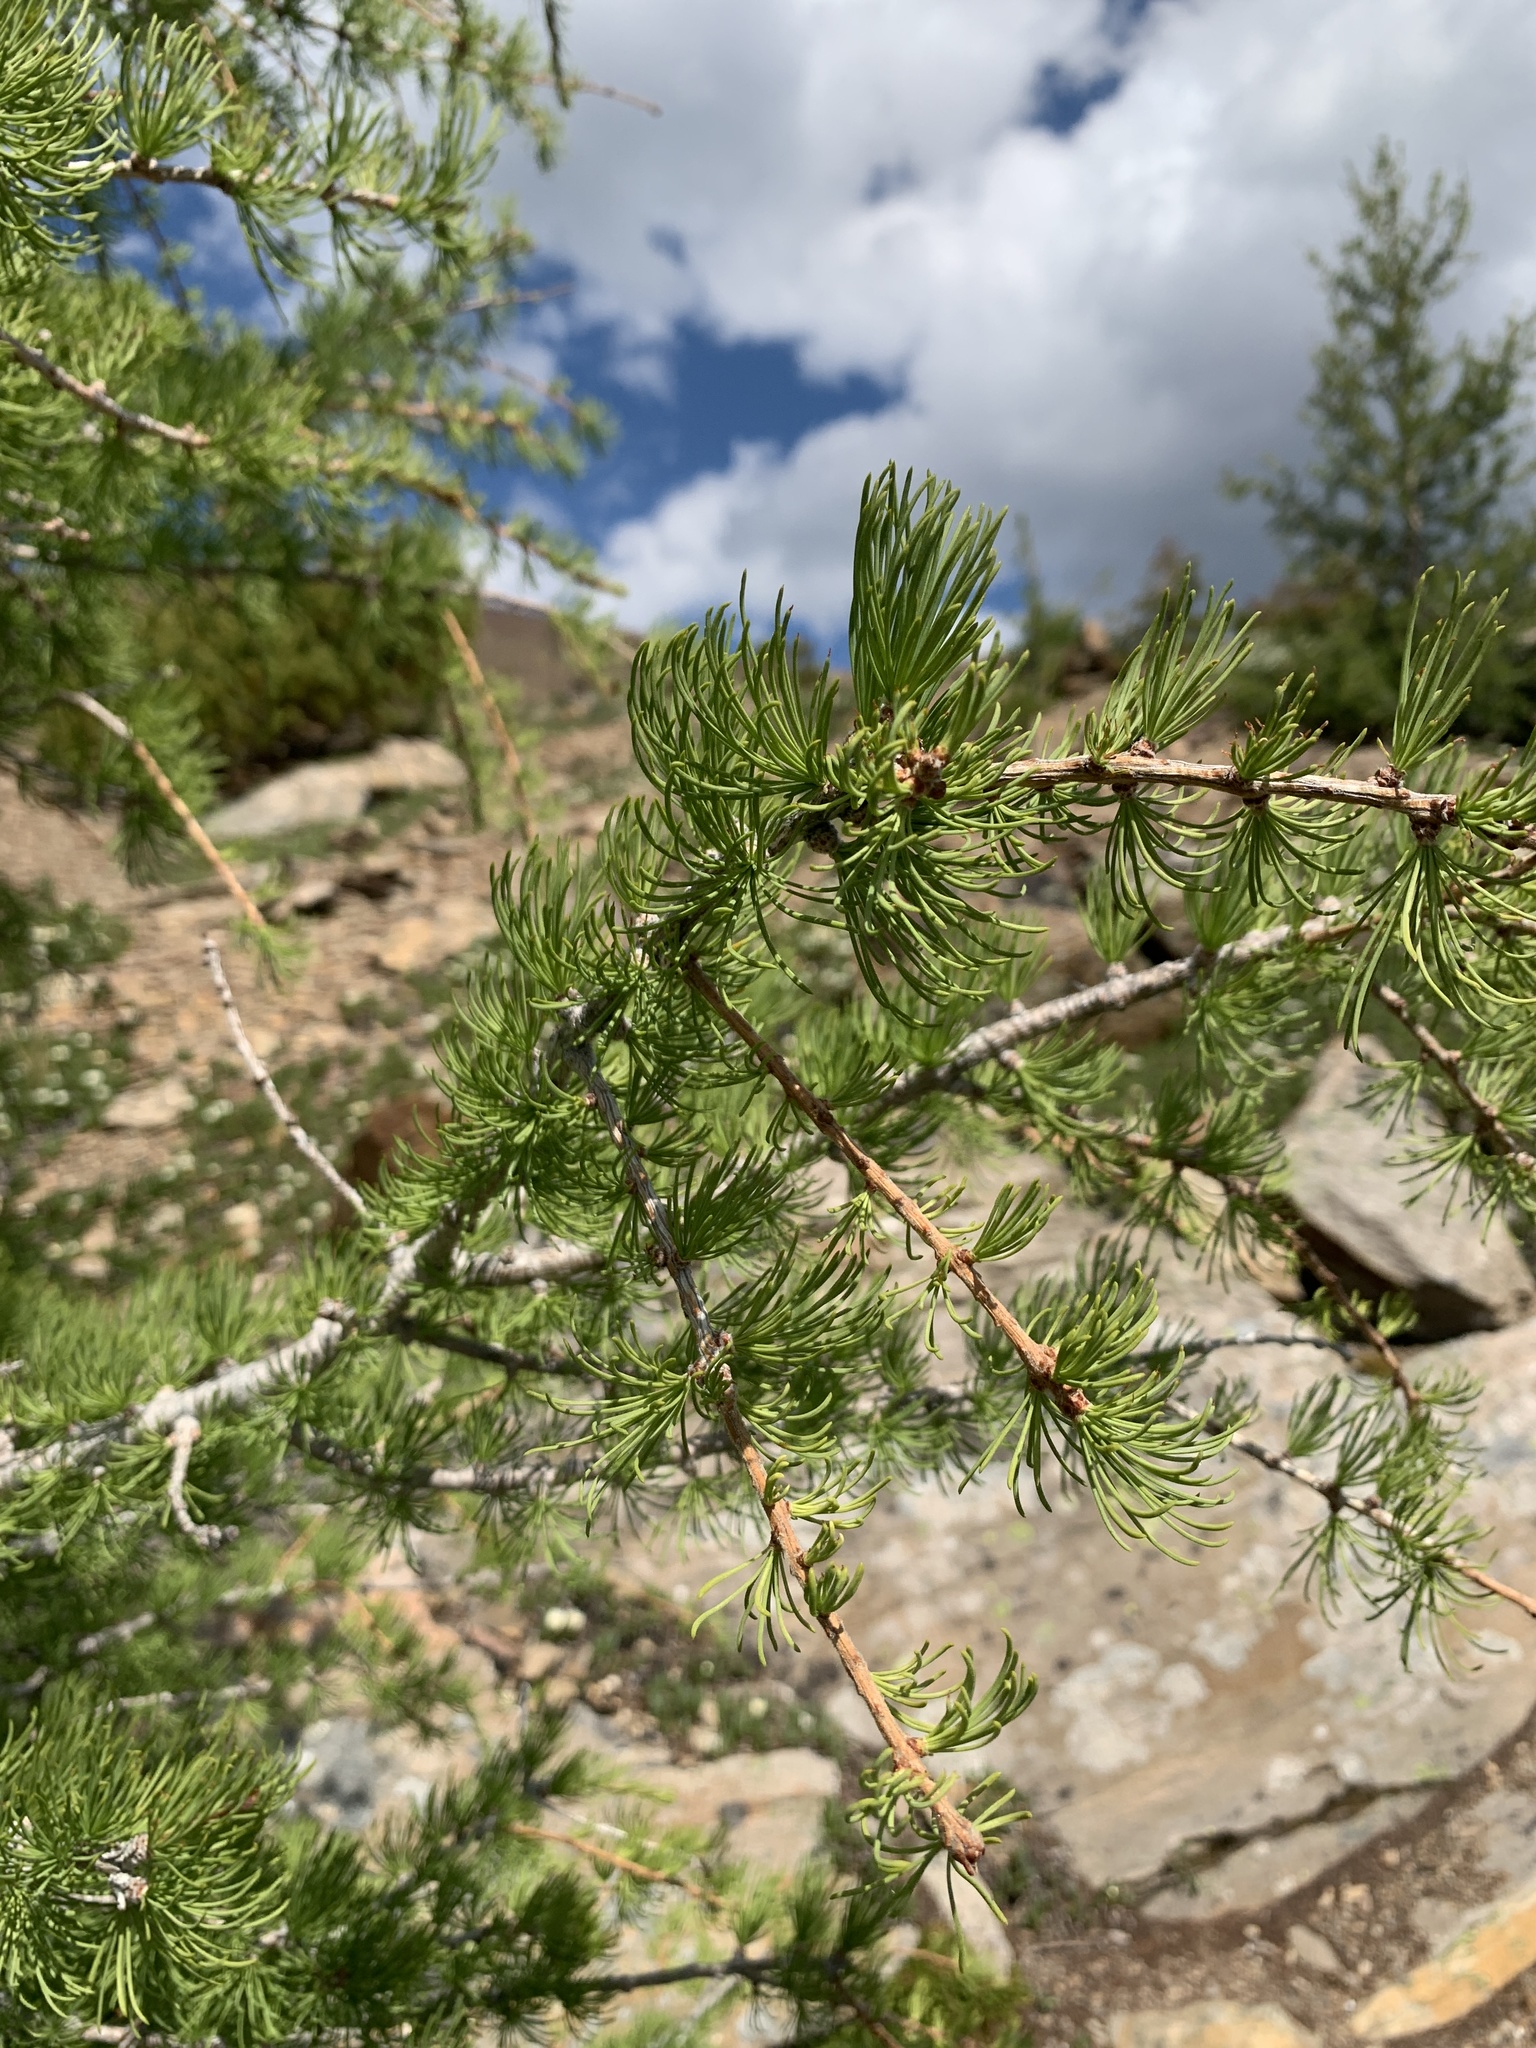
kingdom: Plantae
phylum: Tracheophyta
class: Pinopsida
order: Pinales
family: Pinaceae
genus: Larix
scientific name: Larix lyallii
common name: Alpine larch
